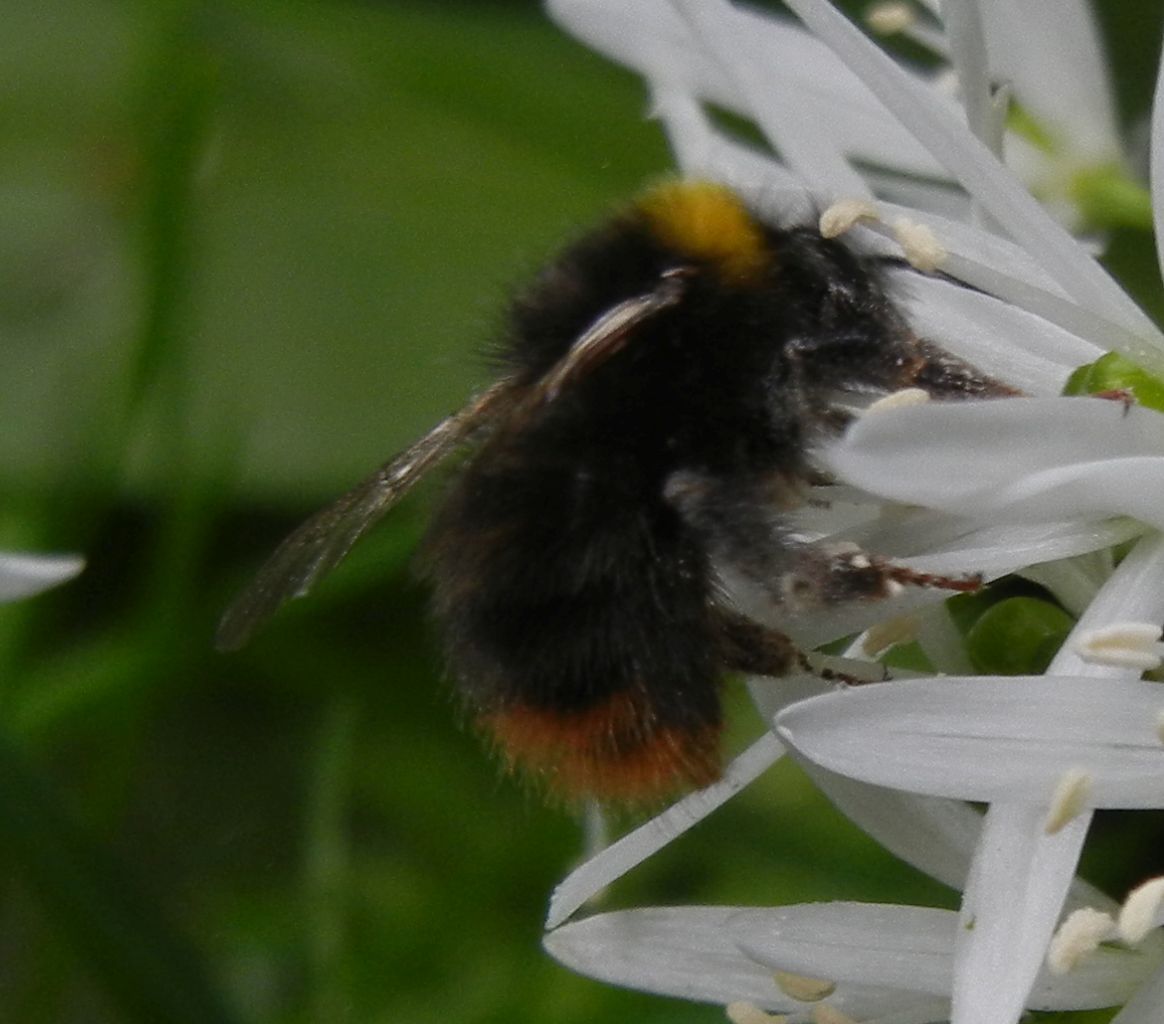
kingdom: Animalia
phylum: Arthropoda
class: Insecta
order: Hymenoptera
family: Apidae
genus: Bombus
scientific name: Bombus pratorum
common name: Early humble-bee
